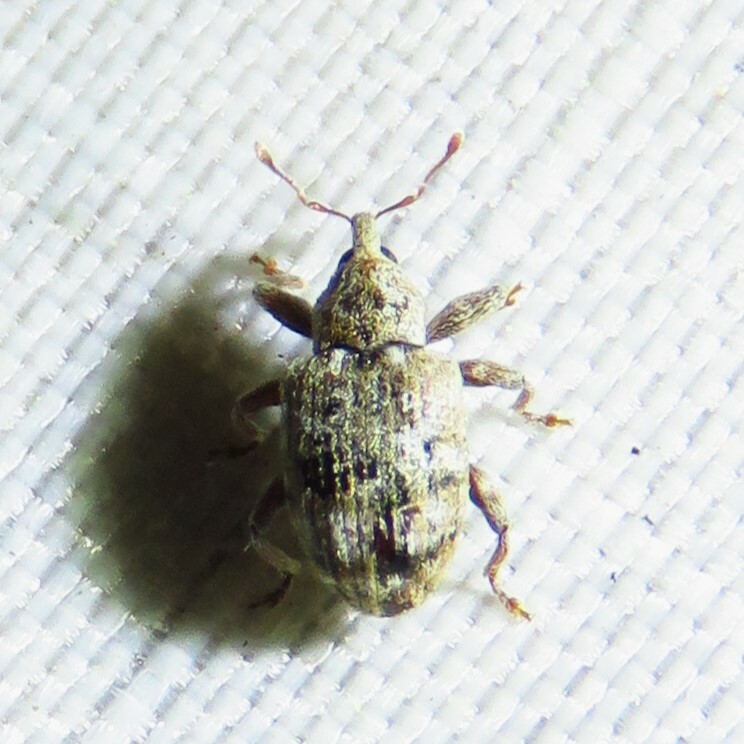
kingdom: Animalia
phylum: Arthropoda
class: Insecta
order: Coleoptera
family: Curculionidae
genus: Conotrachelus
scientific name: Conotrachelus recessus
